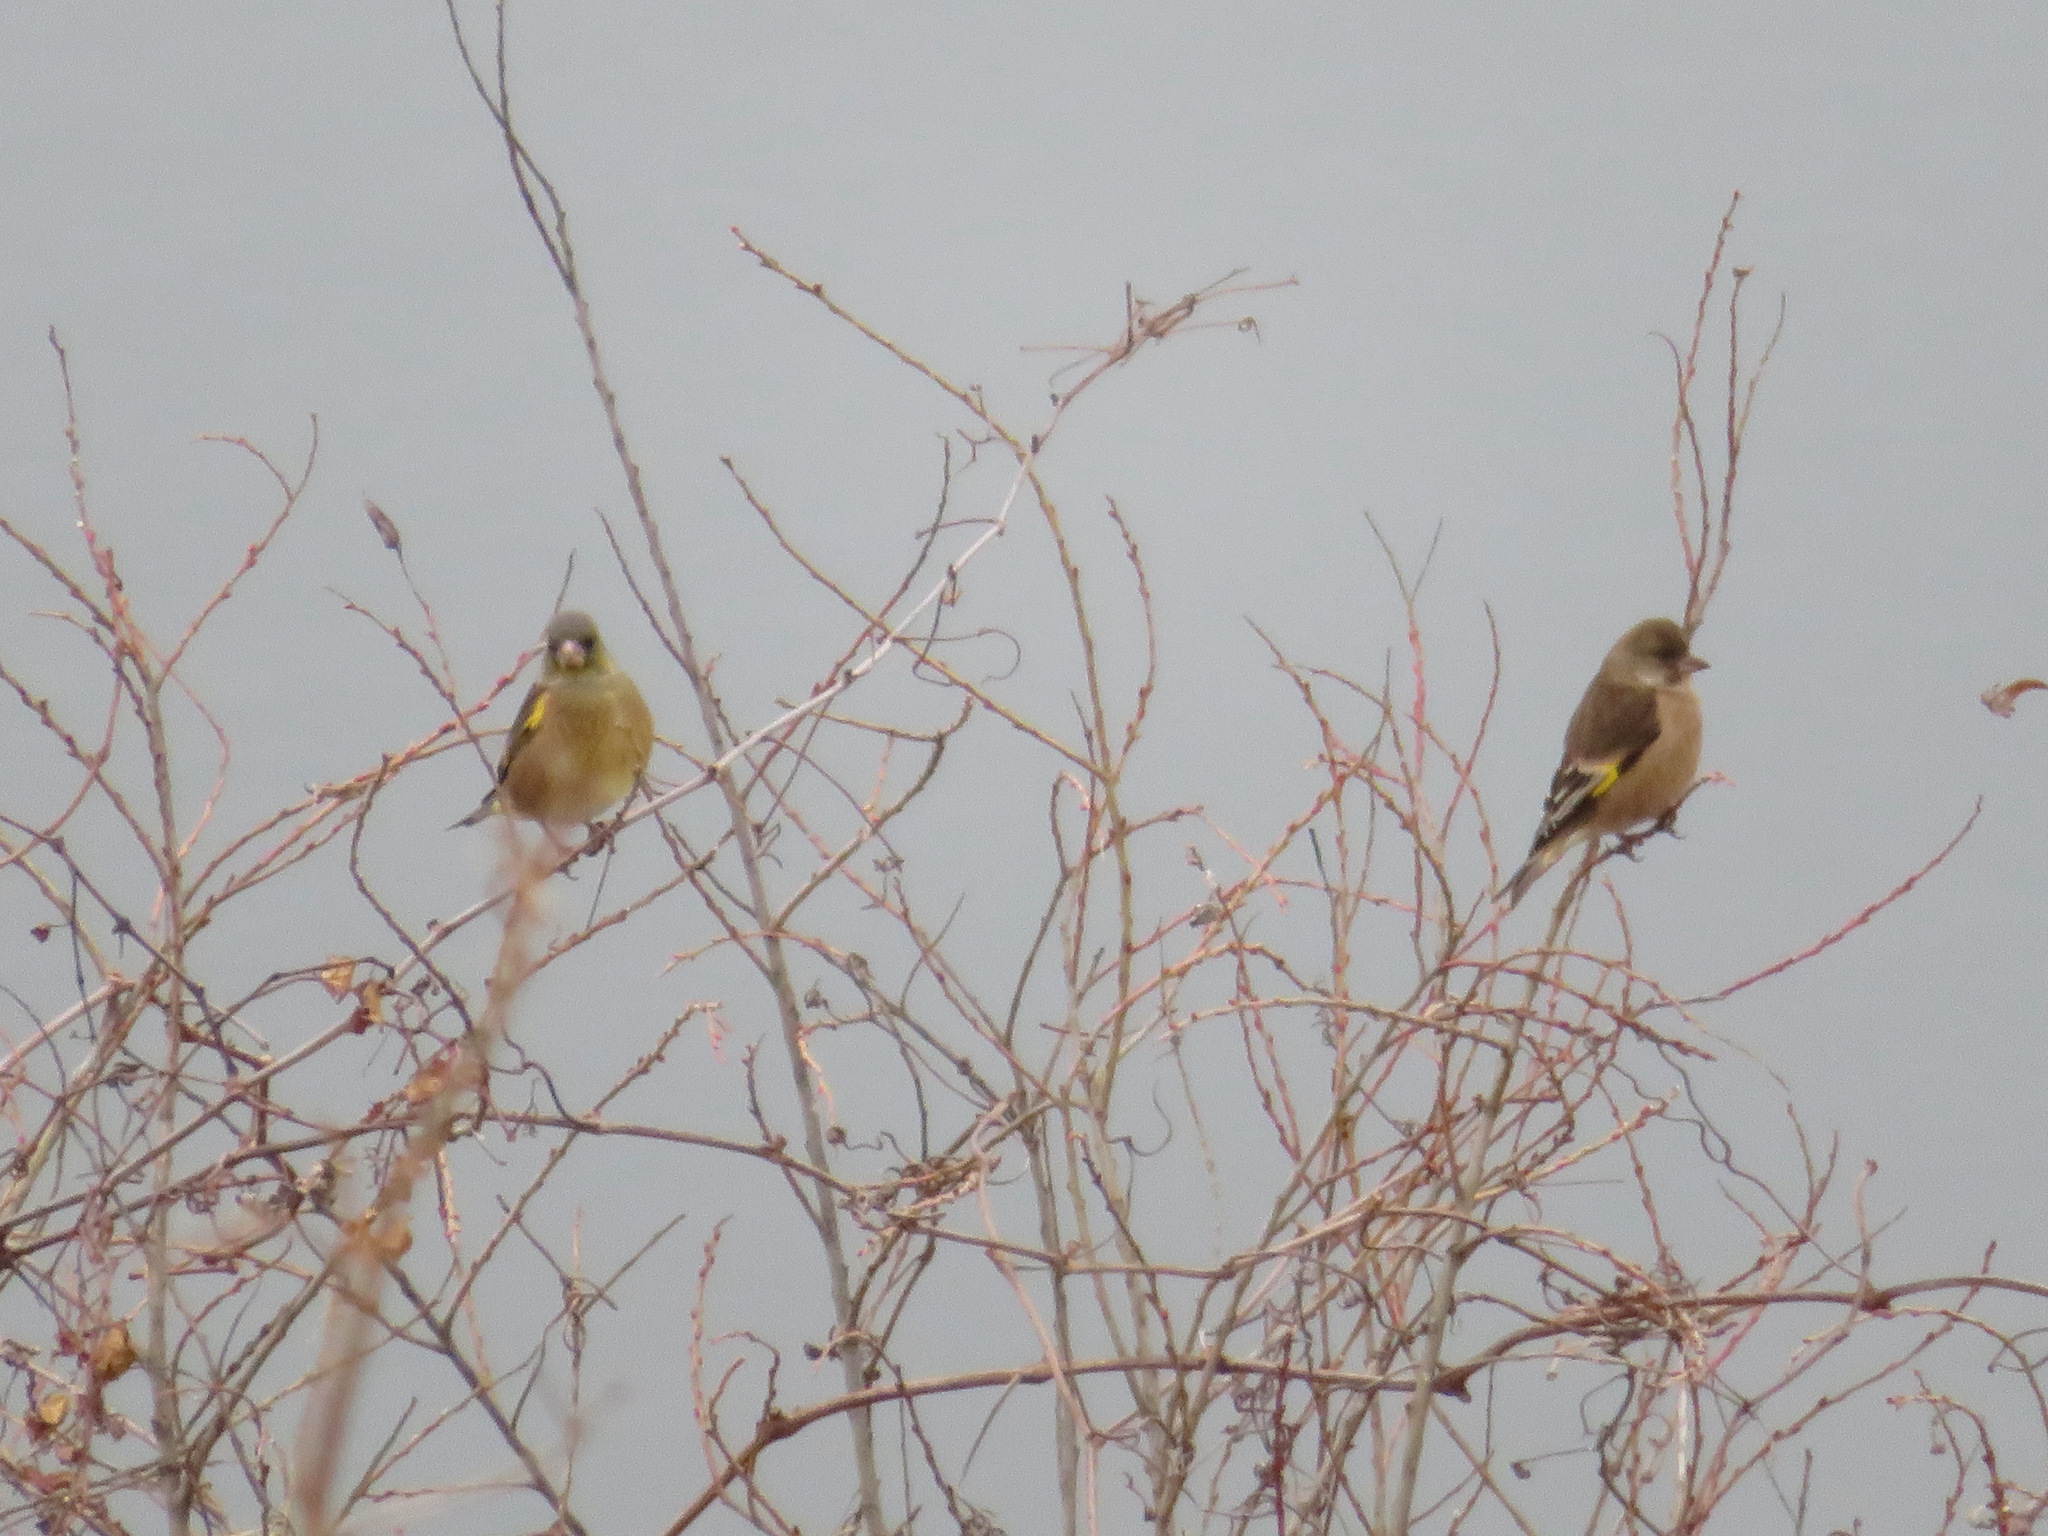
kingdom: Plantae
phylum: Tracheophyta
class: Liliopsida
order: Poales
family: Poaceae
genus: Chloris
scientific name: Chloris sinica
